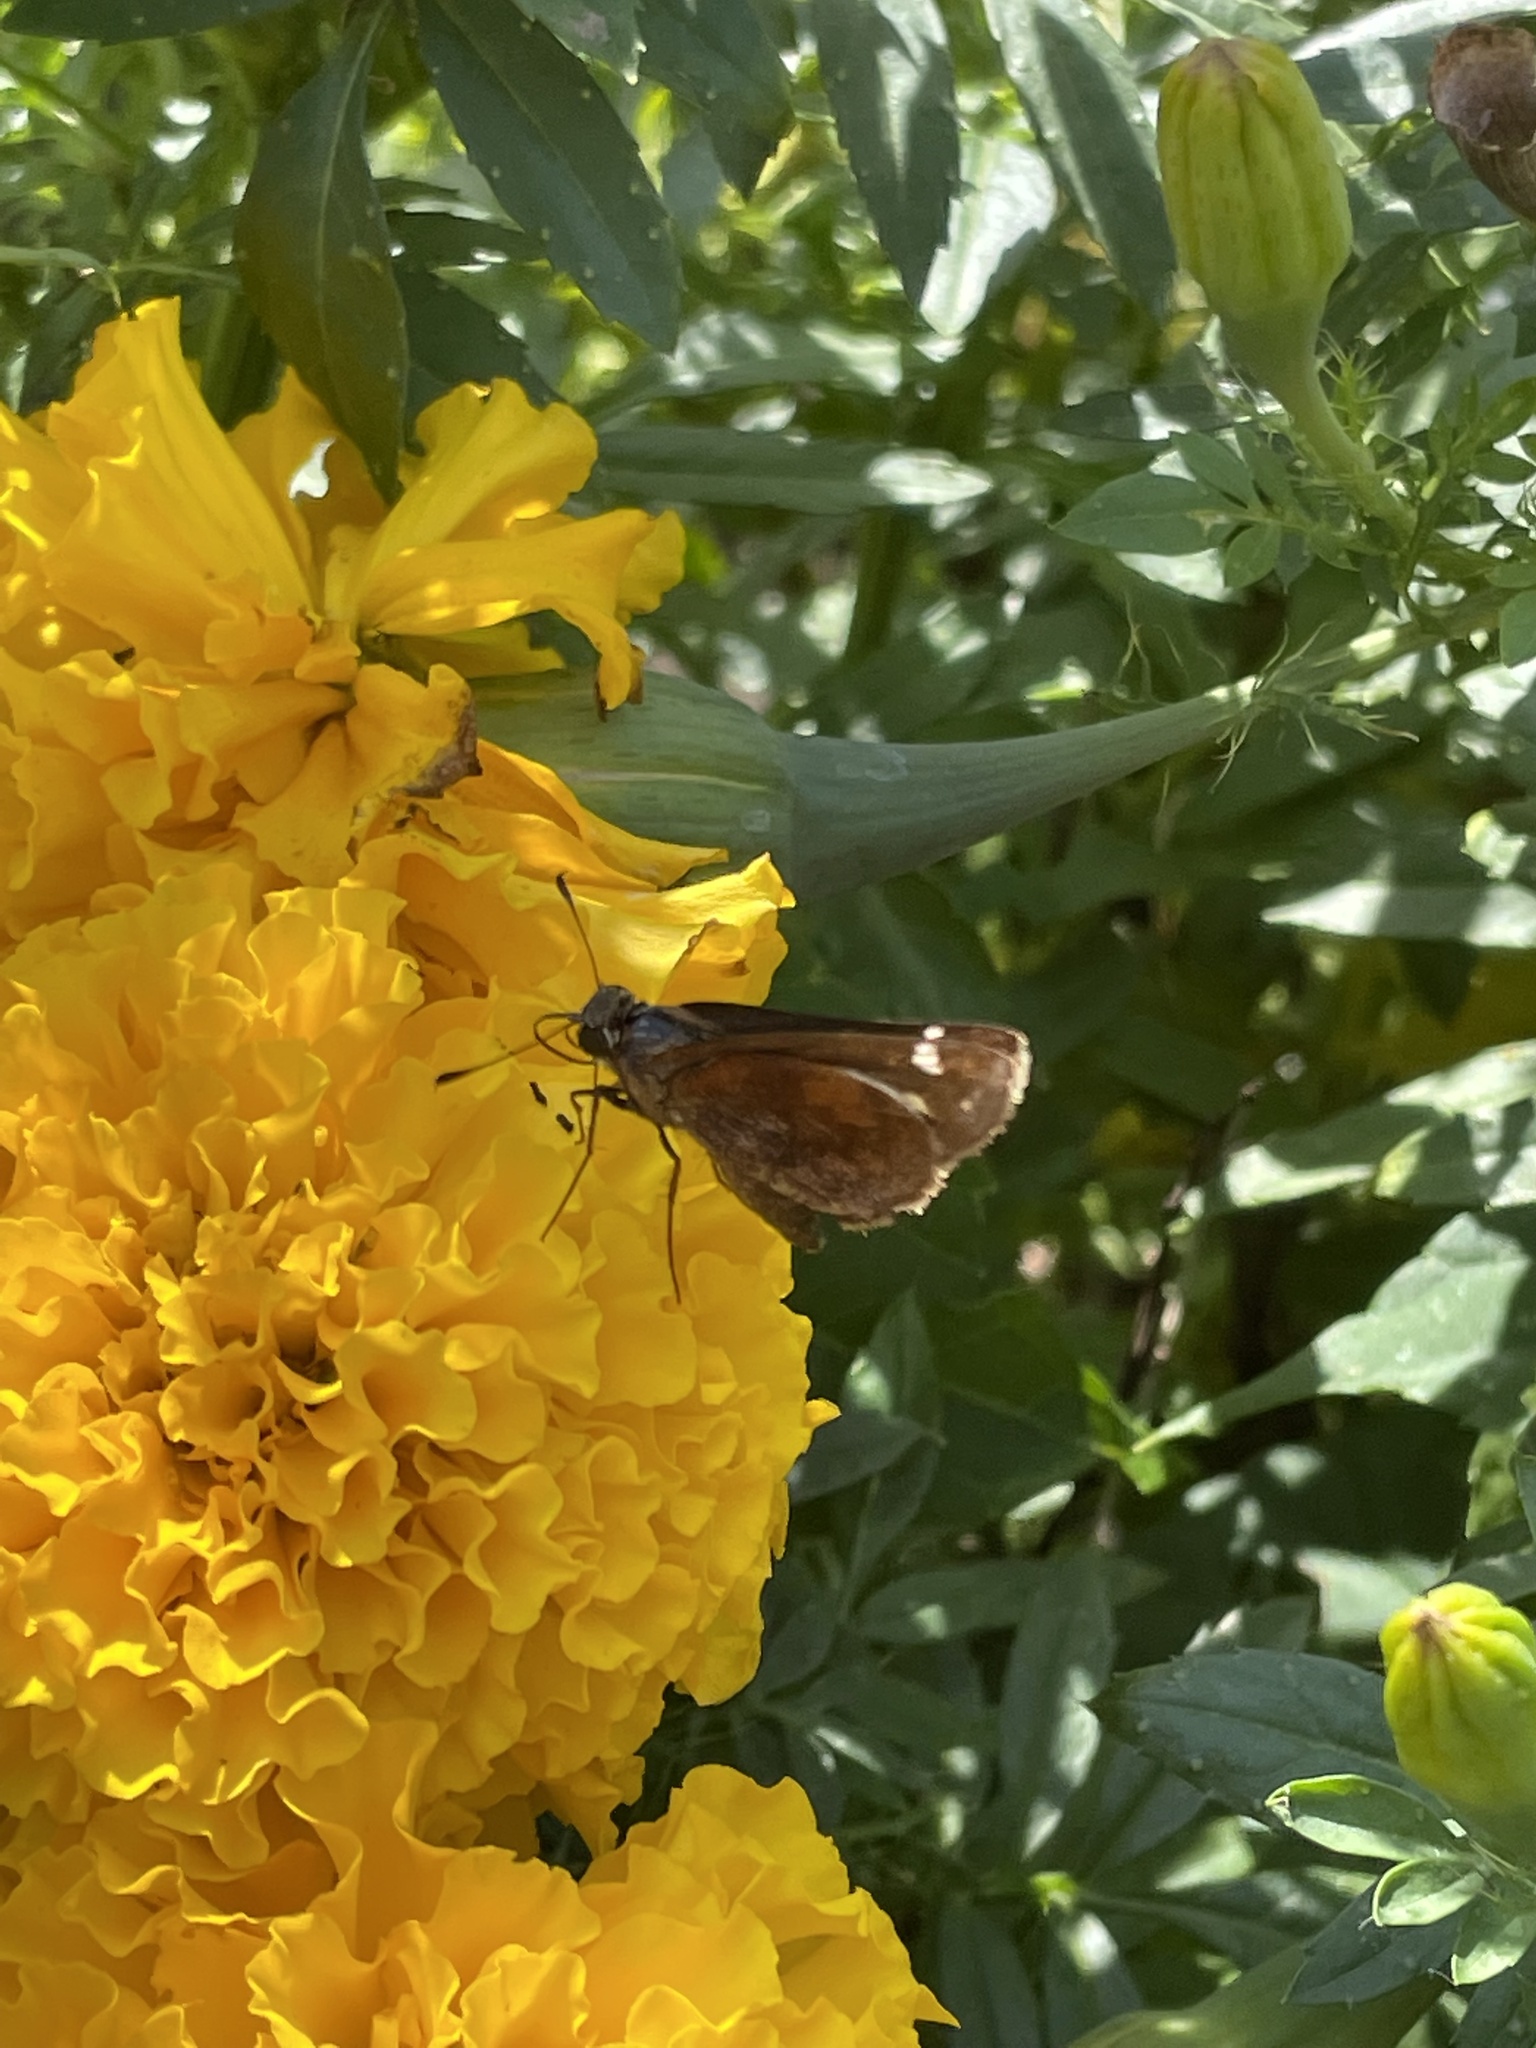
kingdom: Animalia
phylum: Arthropoda
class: Insecta
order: Lepidoptera
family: Hesperiidae
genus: Lon
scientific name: Lon zabulon
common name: Zabulon skipper
